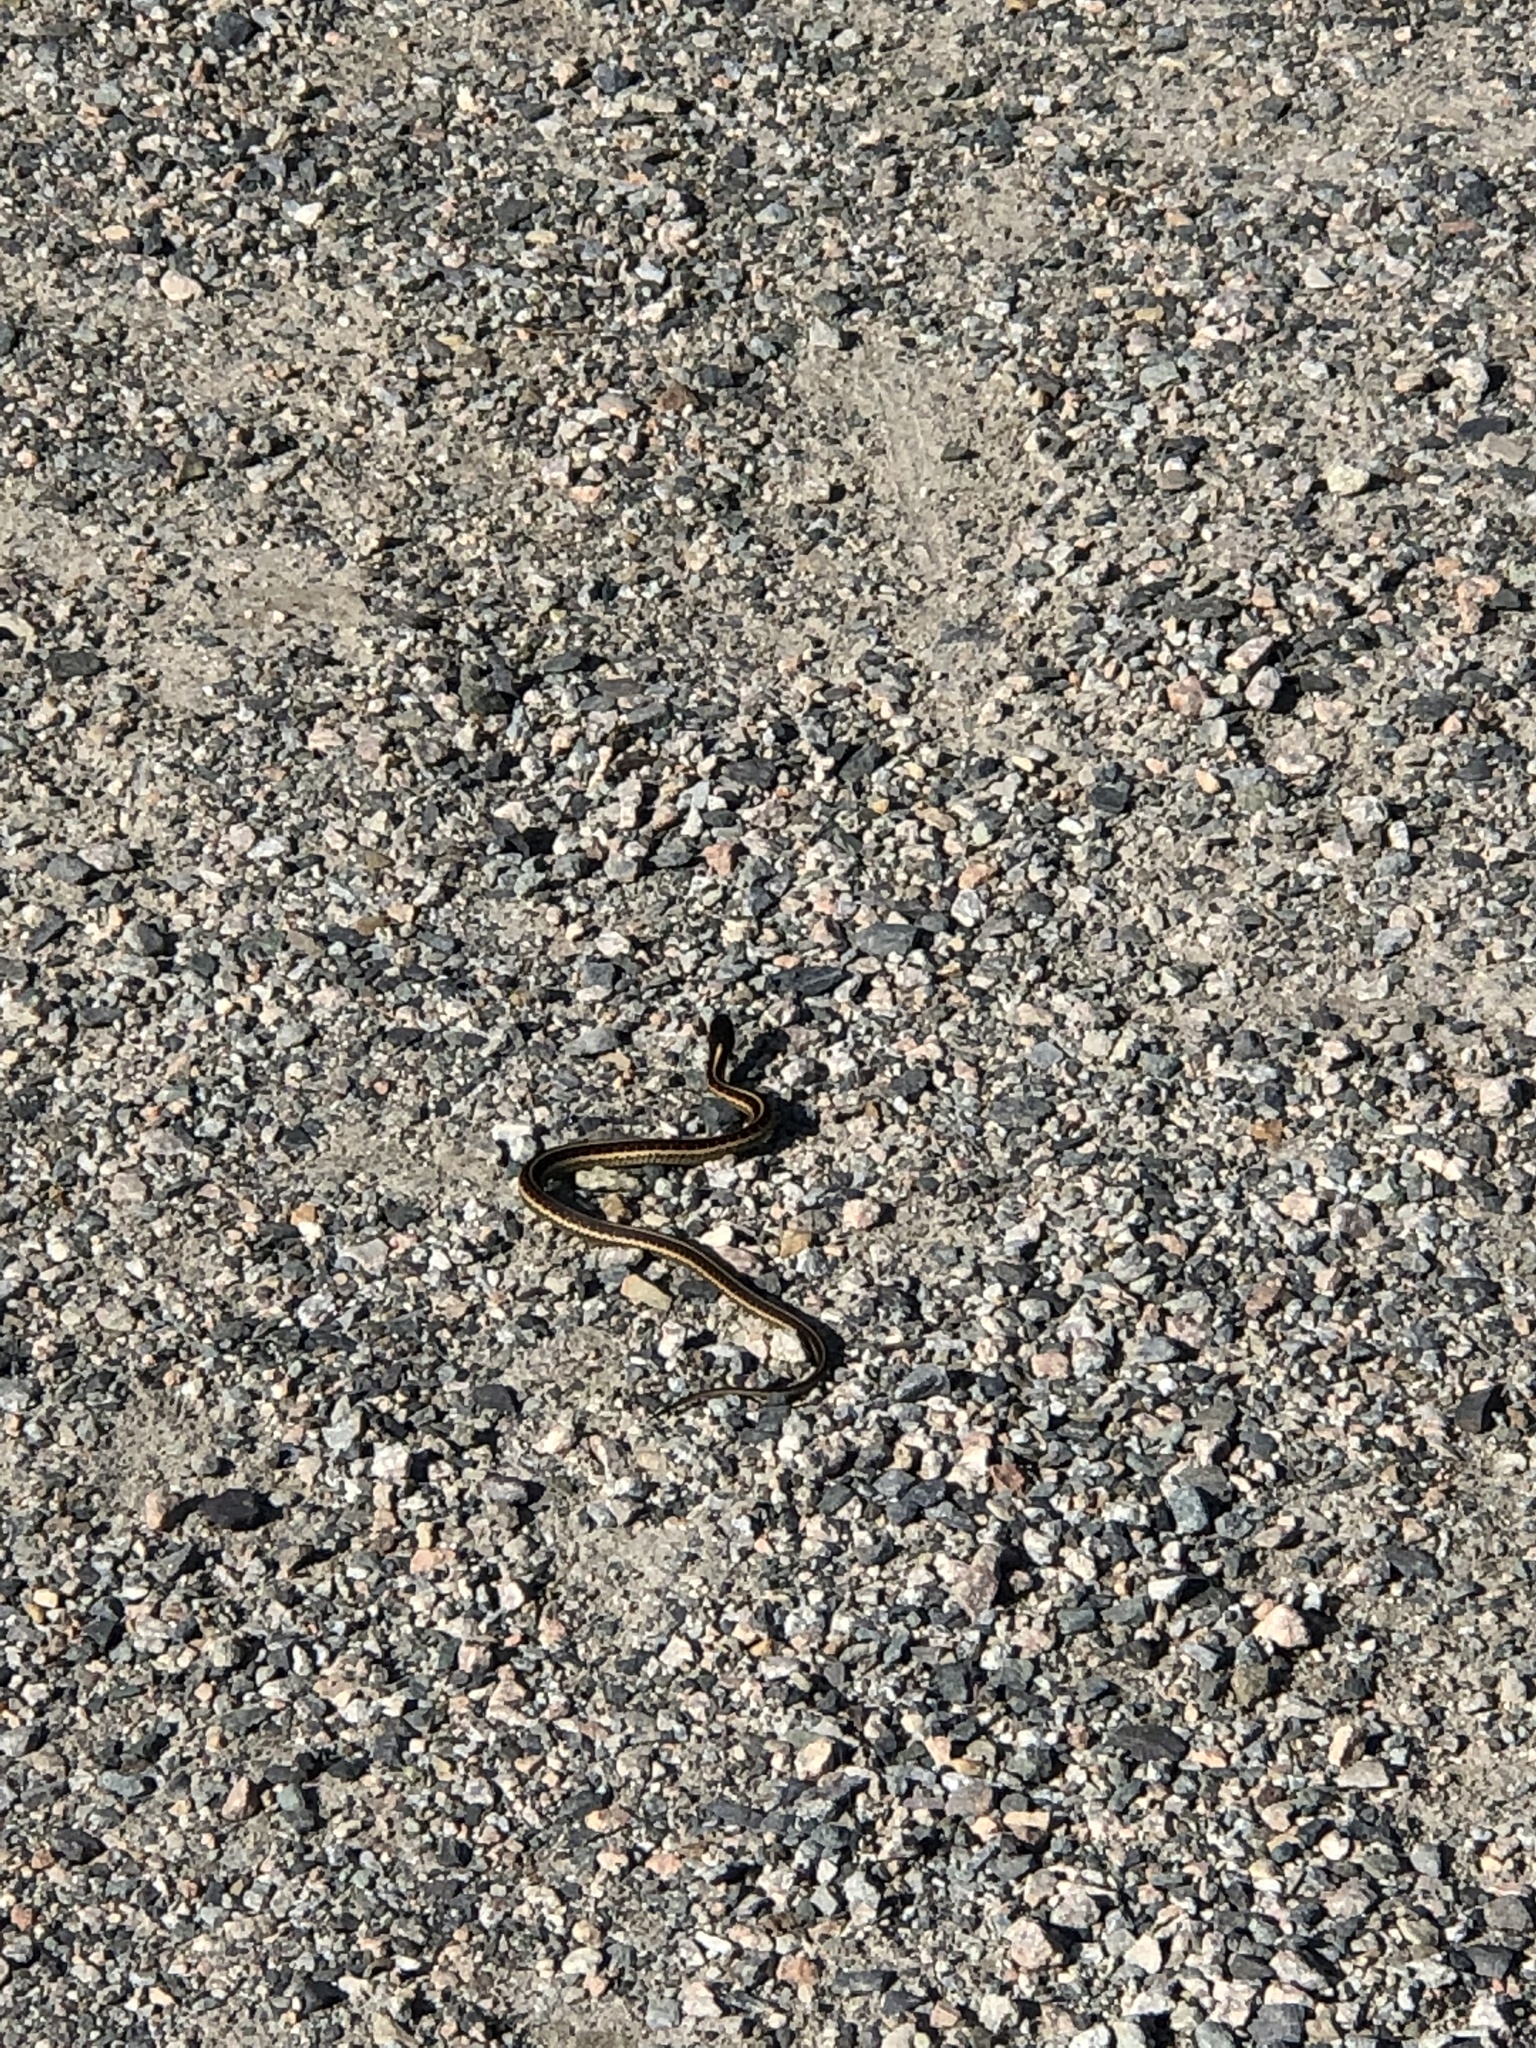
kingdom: Animalia
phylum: Chordata
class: Squamata
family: Colubridae
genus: Thamnophis
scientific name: Thamnophis sirtalis
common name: Common garter snake
